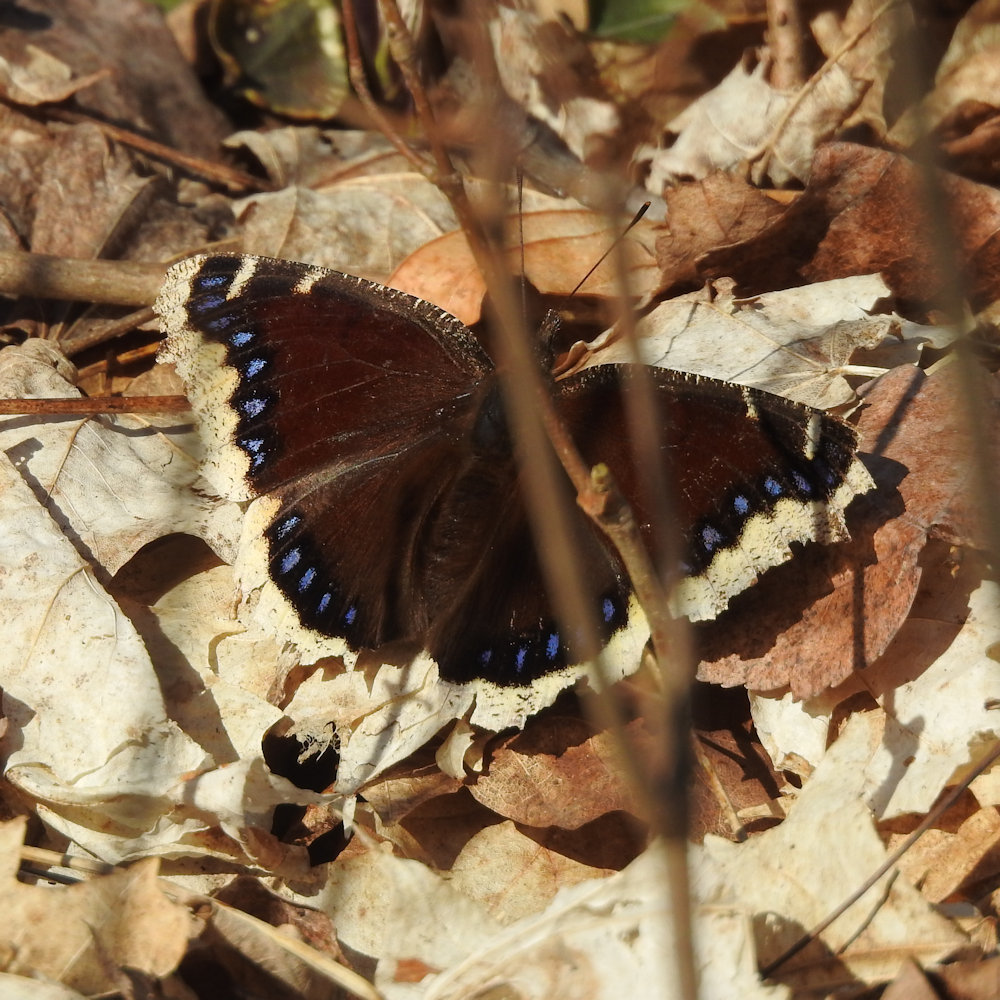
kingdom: Animalia
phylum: Arthropoda
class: Insecta
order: Lepidoptera
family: Nymphalidae
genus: Nymphalis
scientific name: Nymphalis antiopa
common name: Camberwell beauty
